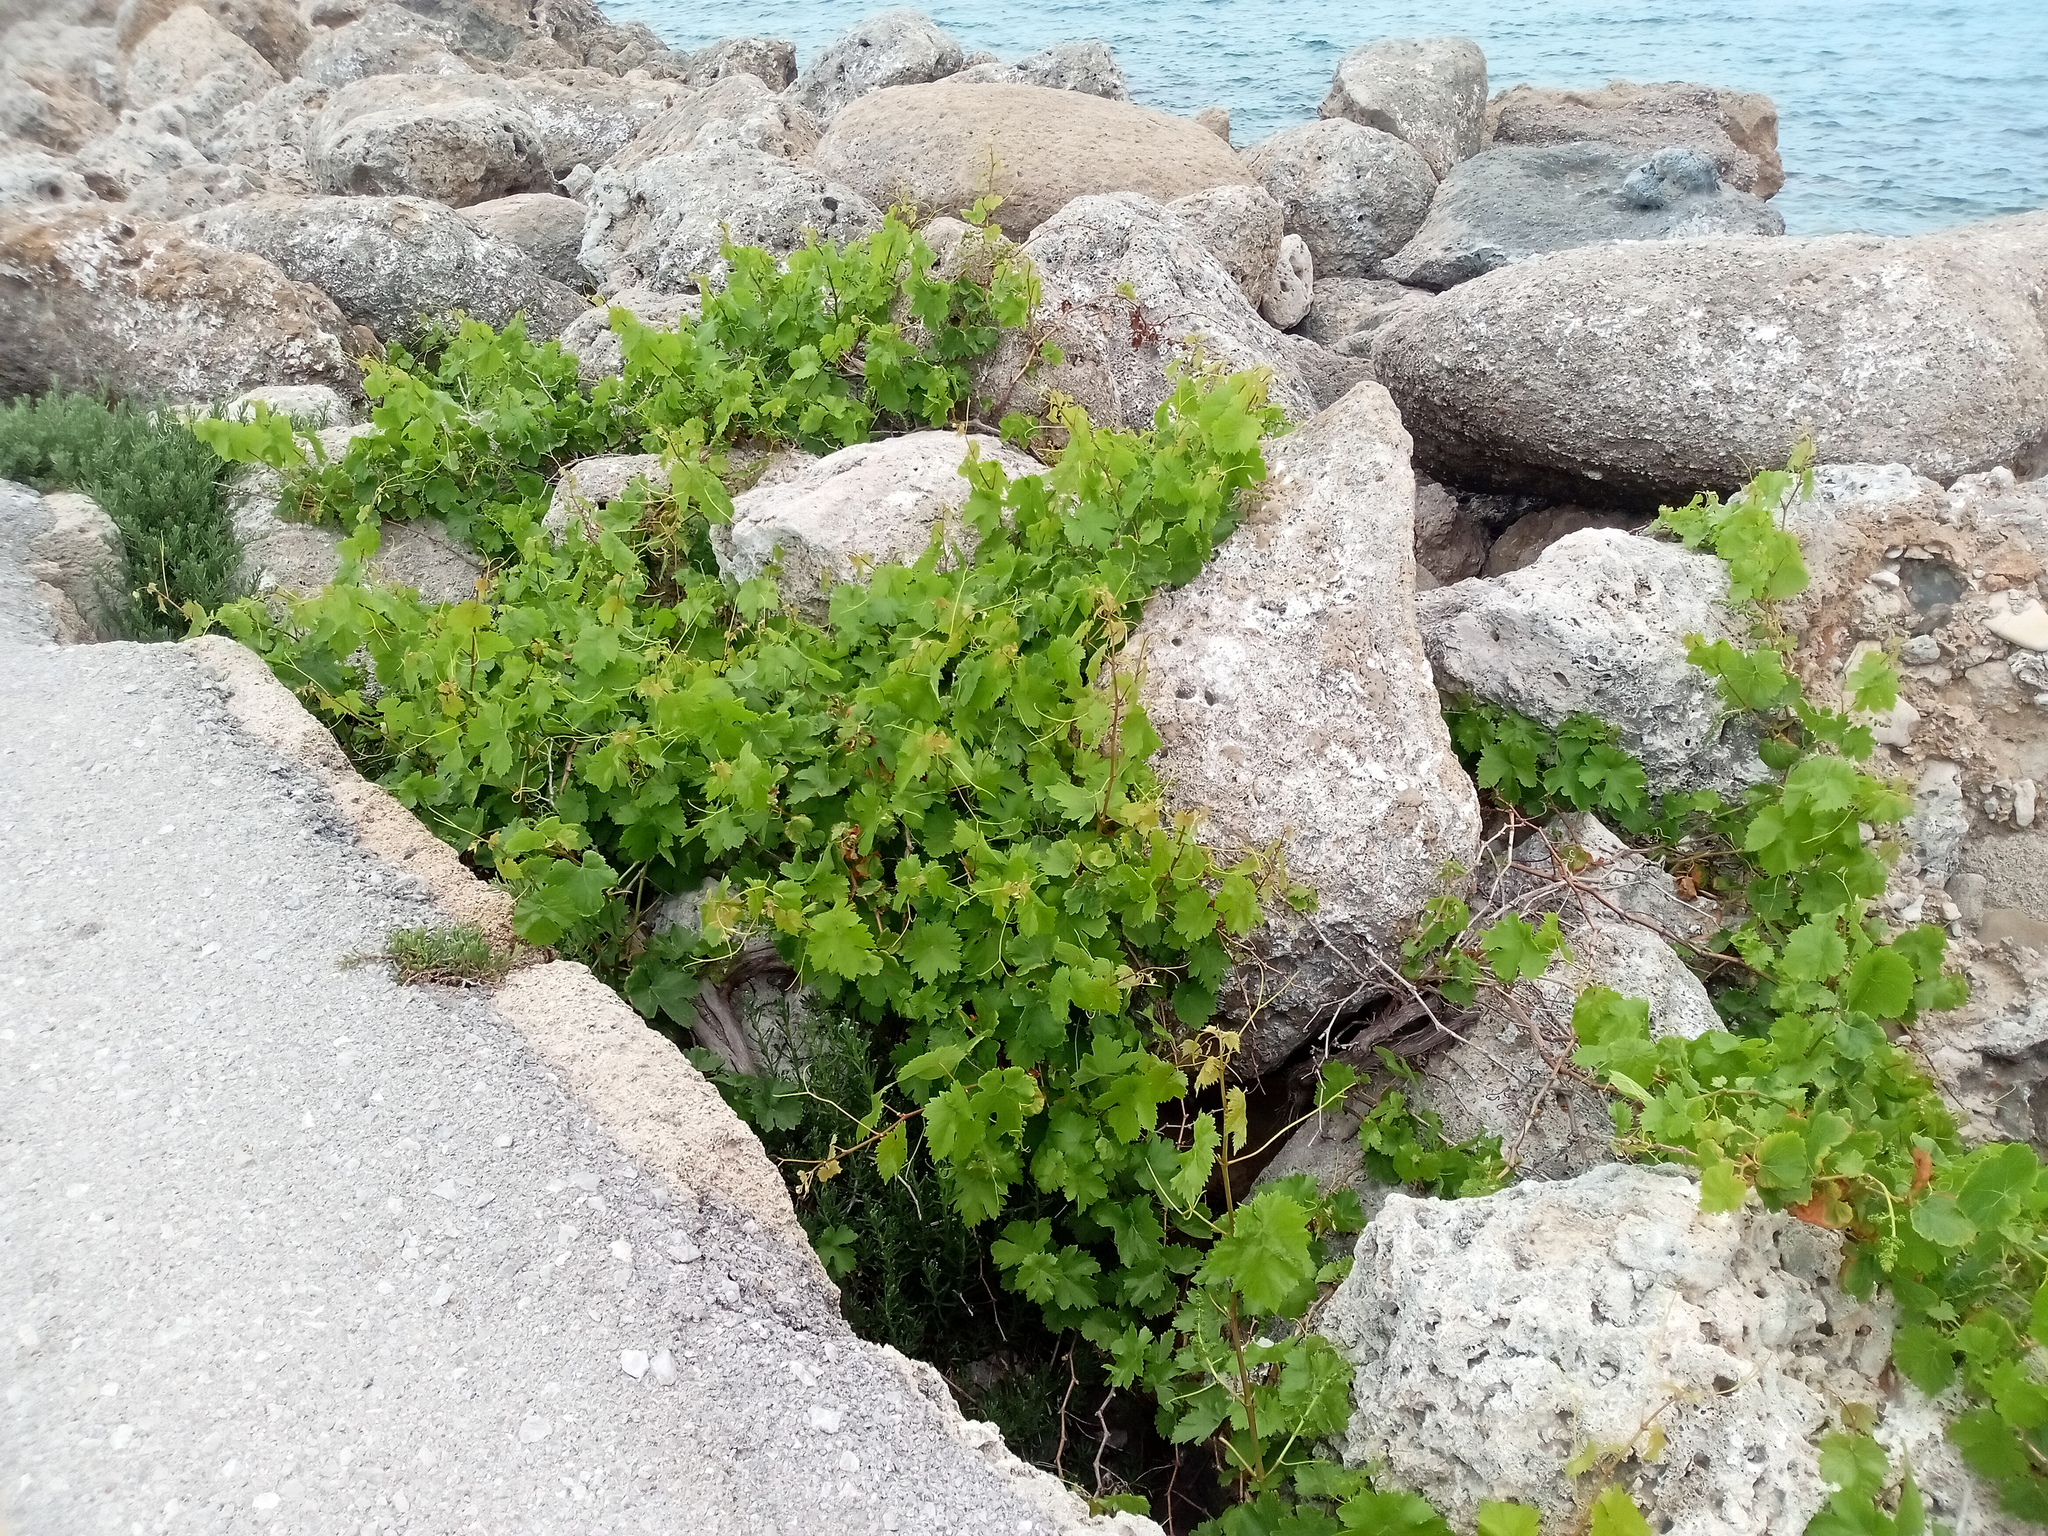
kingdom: Plantae
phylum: Tracheophyta
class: Magnoliopsida
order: Vitales
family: Vitaceae
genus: Vitis
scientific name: Vitis vinifera
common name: Grape-vine
